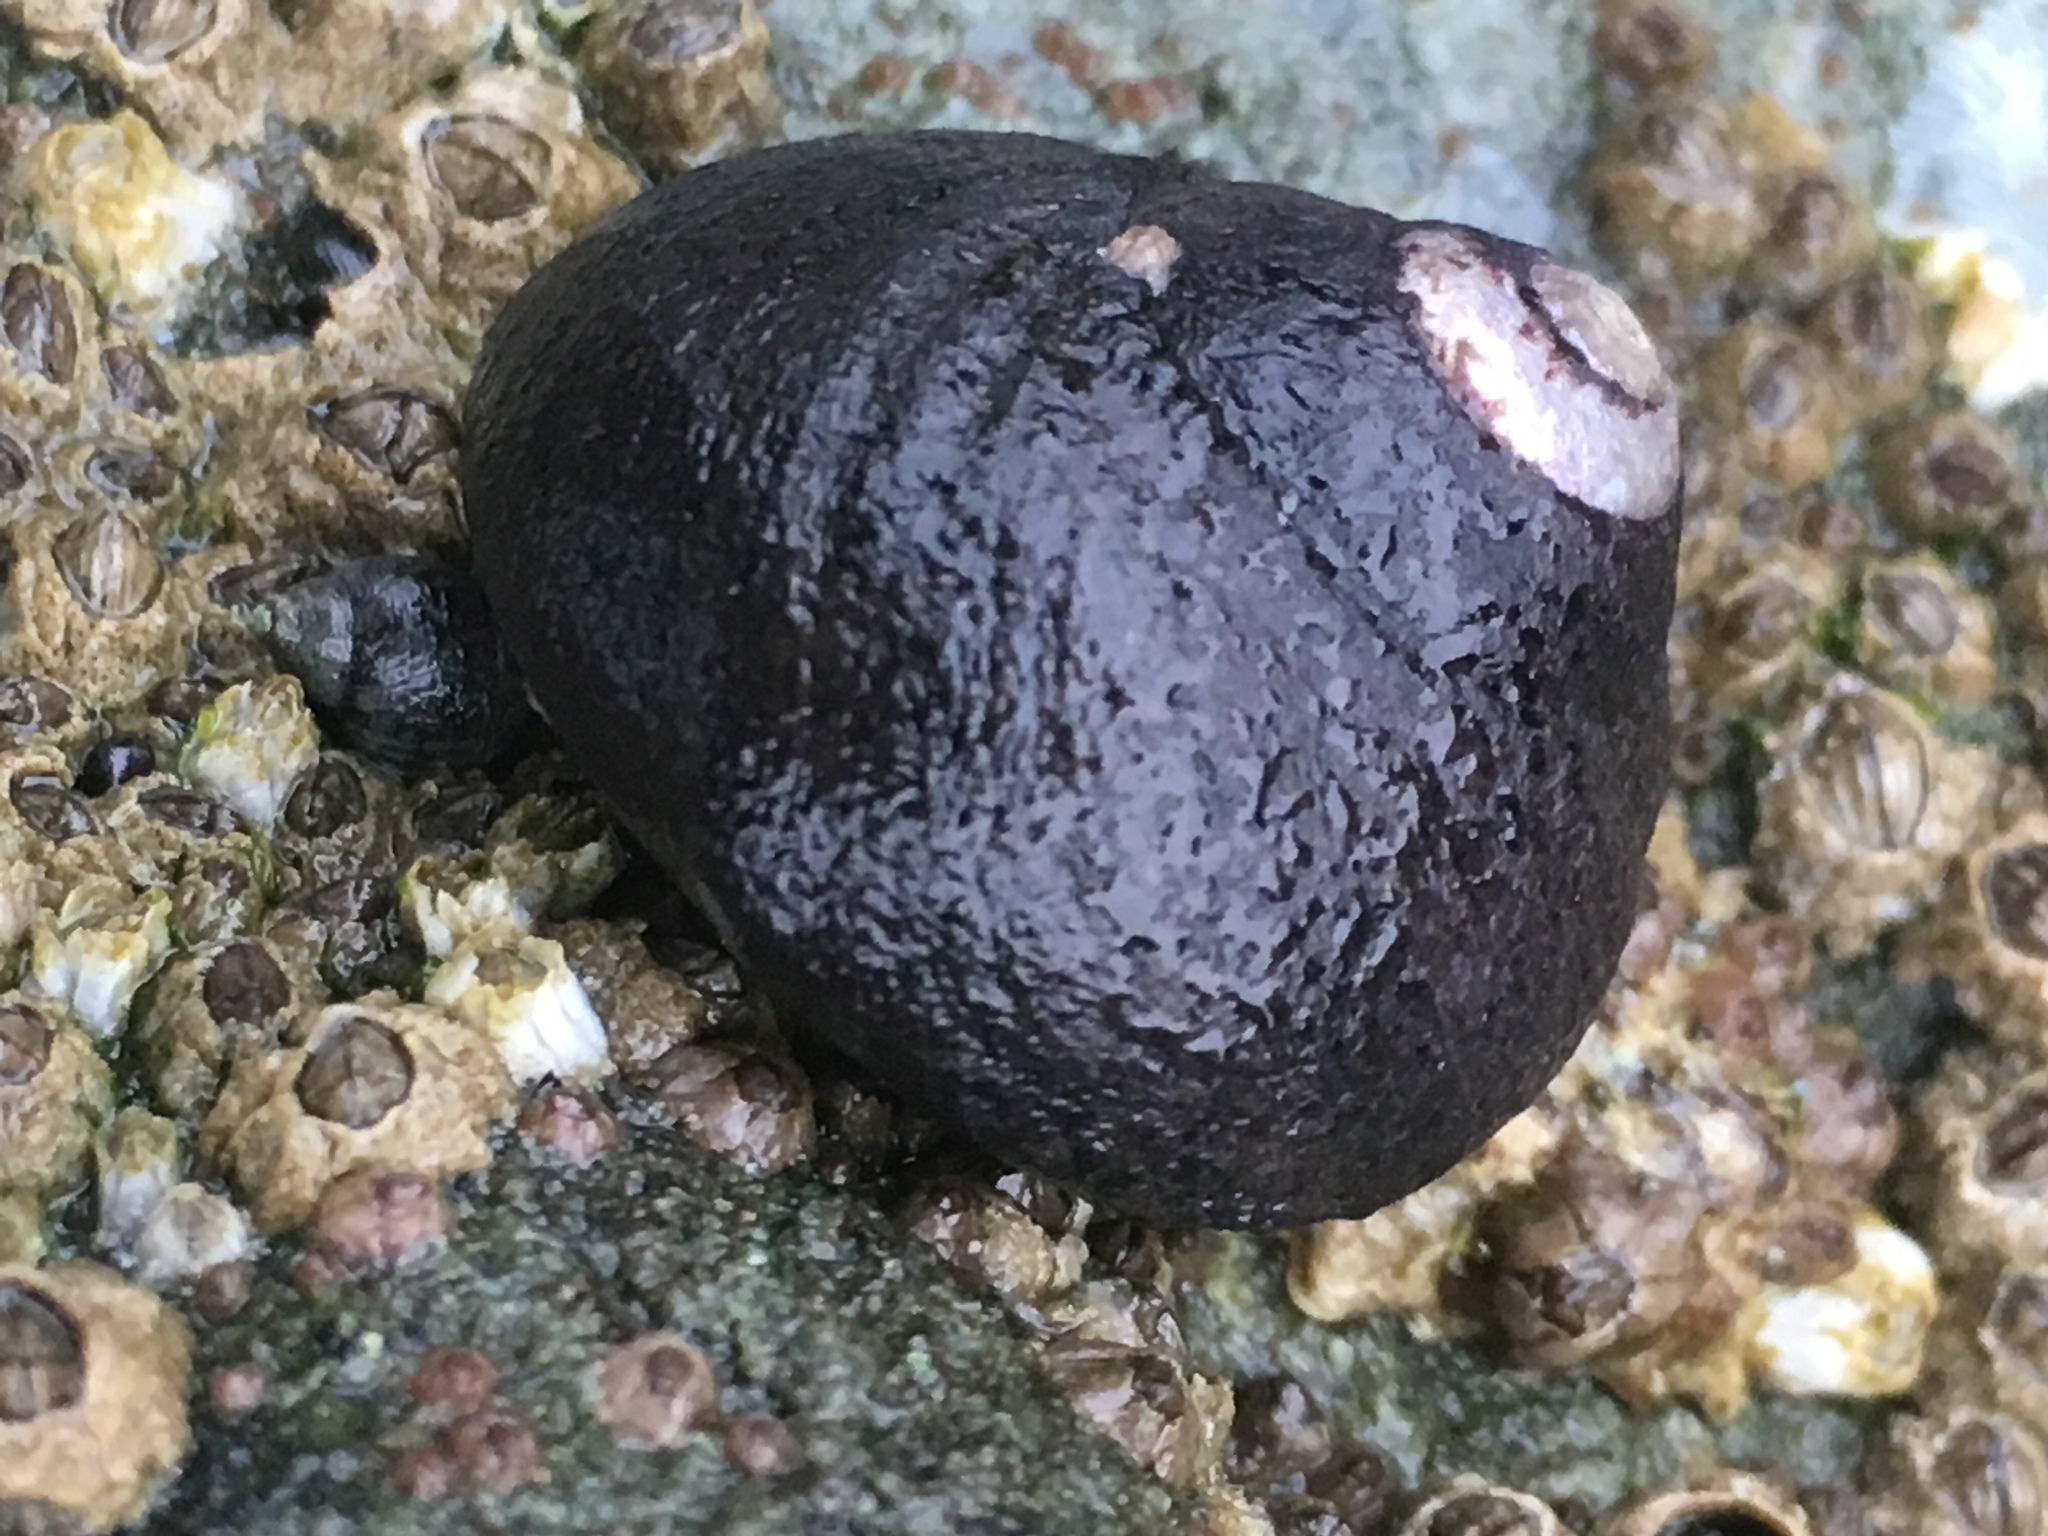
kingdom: Animalia
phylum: Mollusca
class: Gastropoda
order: Trochida
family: Tegulidae
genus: Tegula
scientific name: Tegula funebralis
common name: Black tegula
